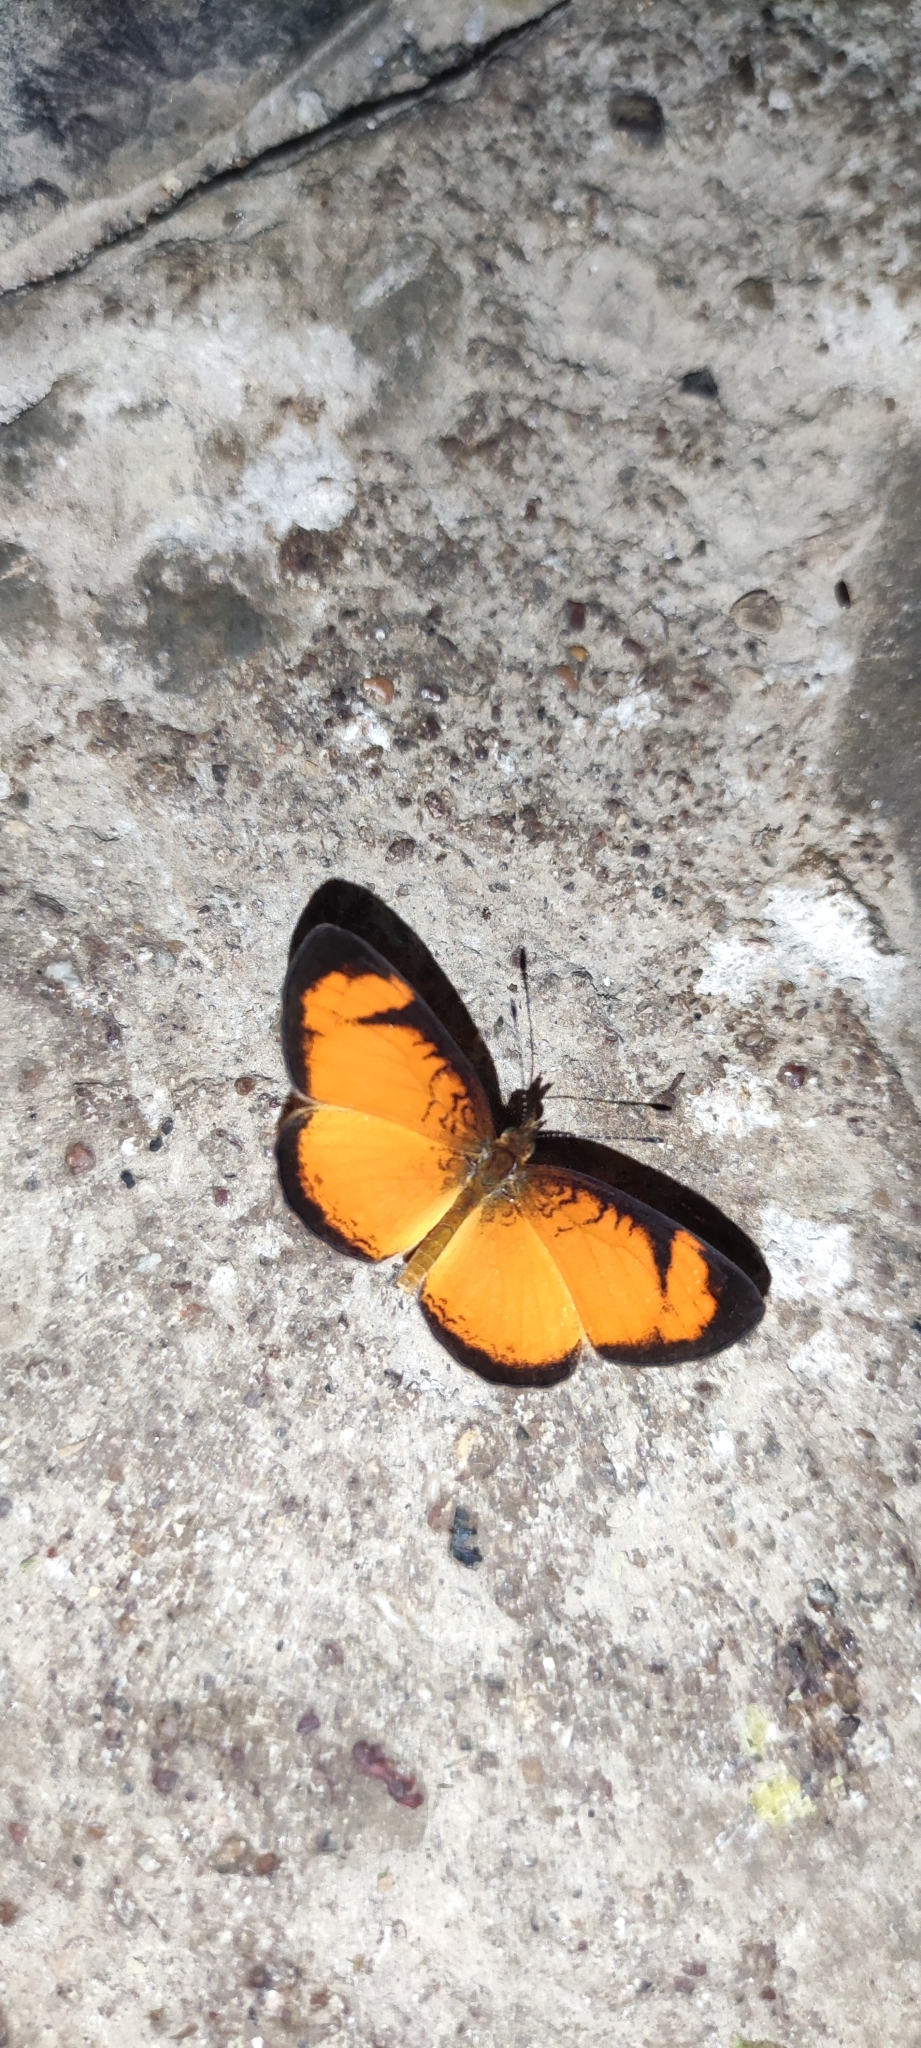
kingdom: Animalia
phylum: Arthropoda
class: Insecta
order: Lepidoptera
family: Nymphalidae
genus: Tegosa
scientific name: Tegosa anieta
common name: Black-bordered crescent
